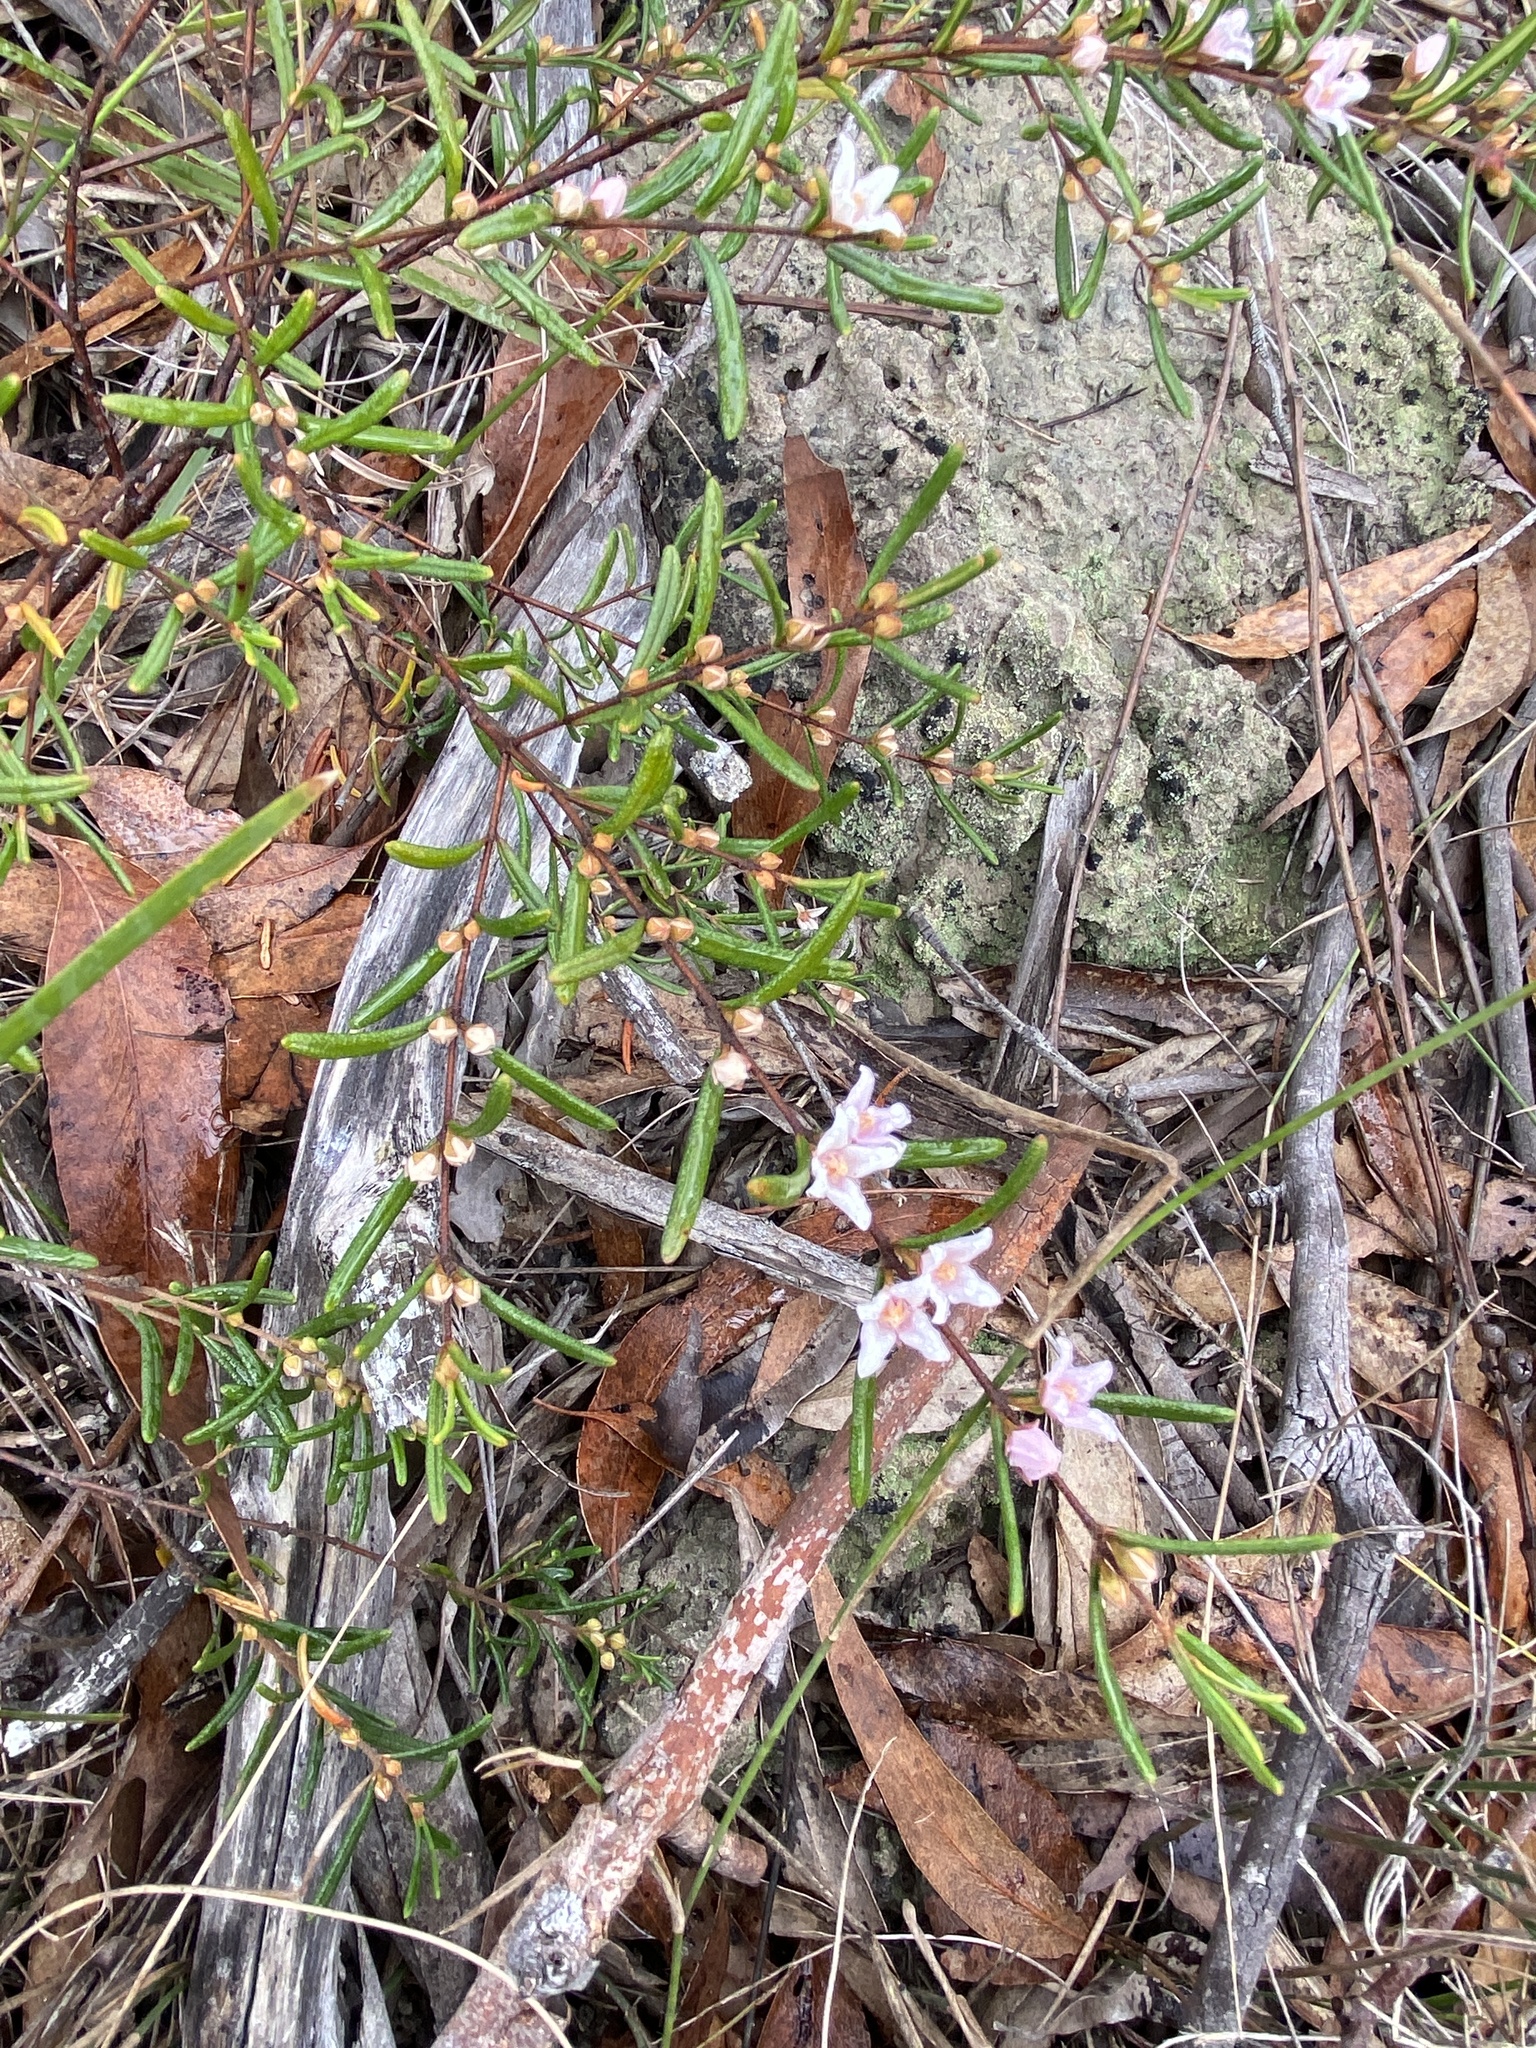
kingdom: Plantae
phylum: Tracheophyta
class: Magnoliopsida
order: Sapindales
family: Rutaceae
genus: Boronia
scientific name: Boronia rosmarinifolia
